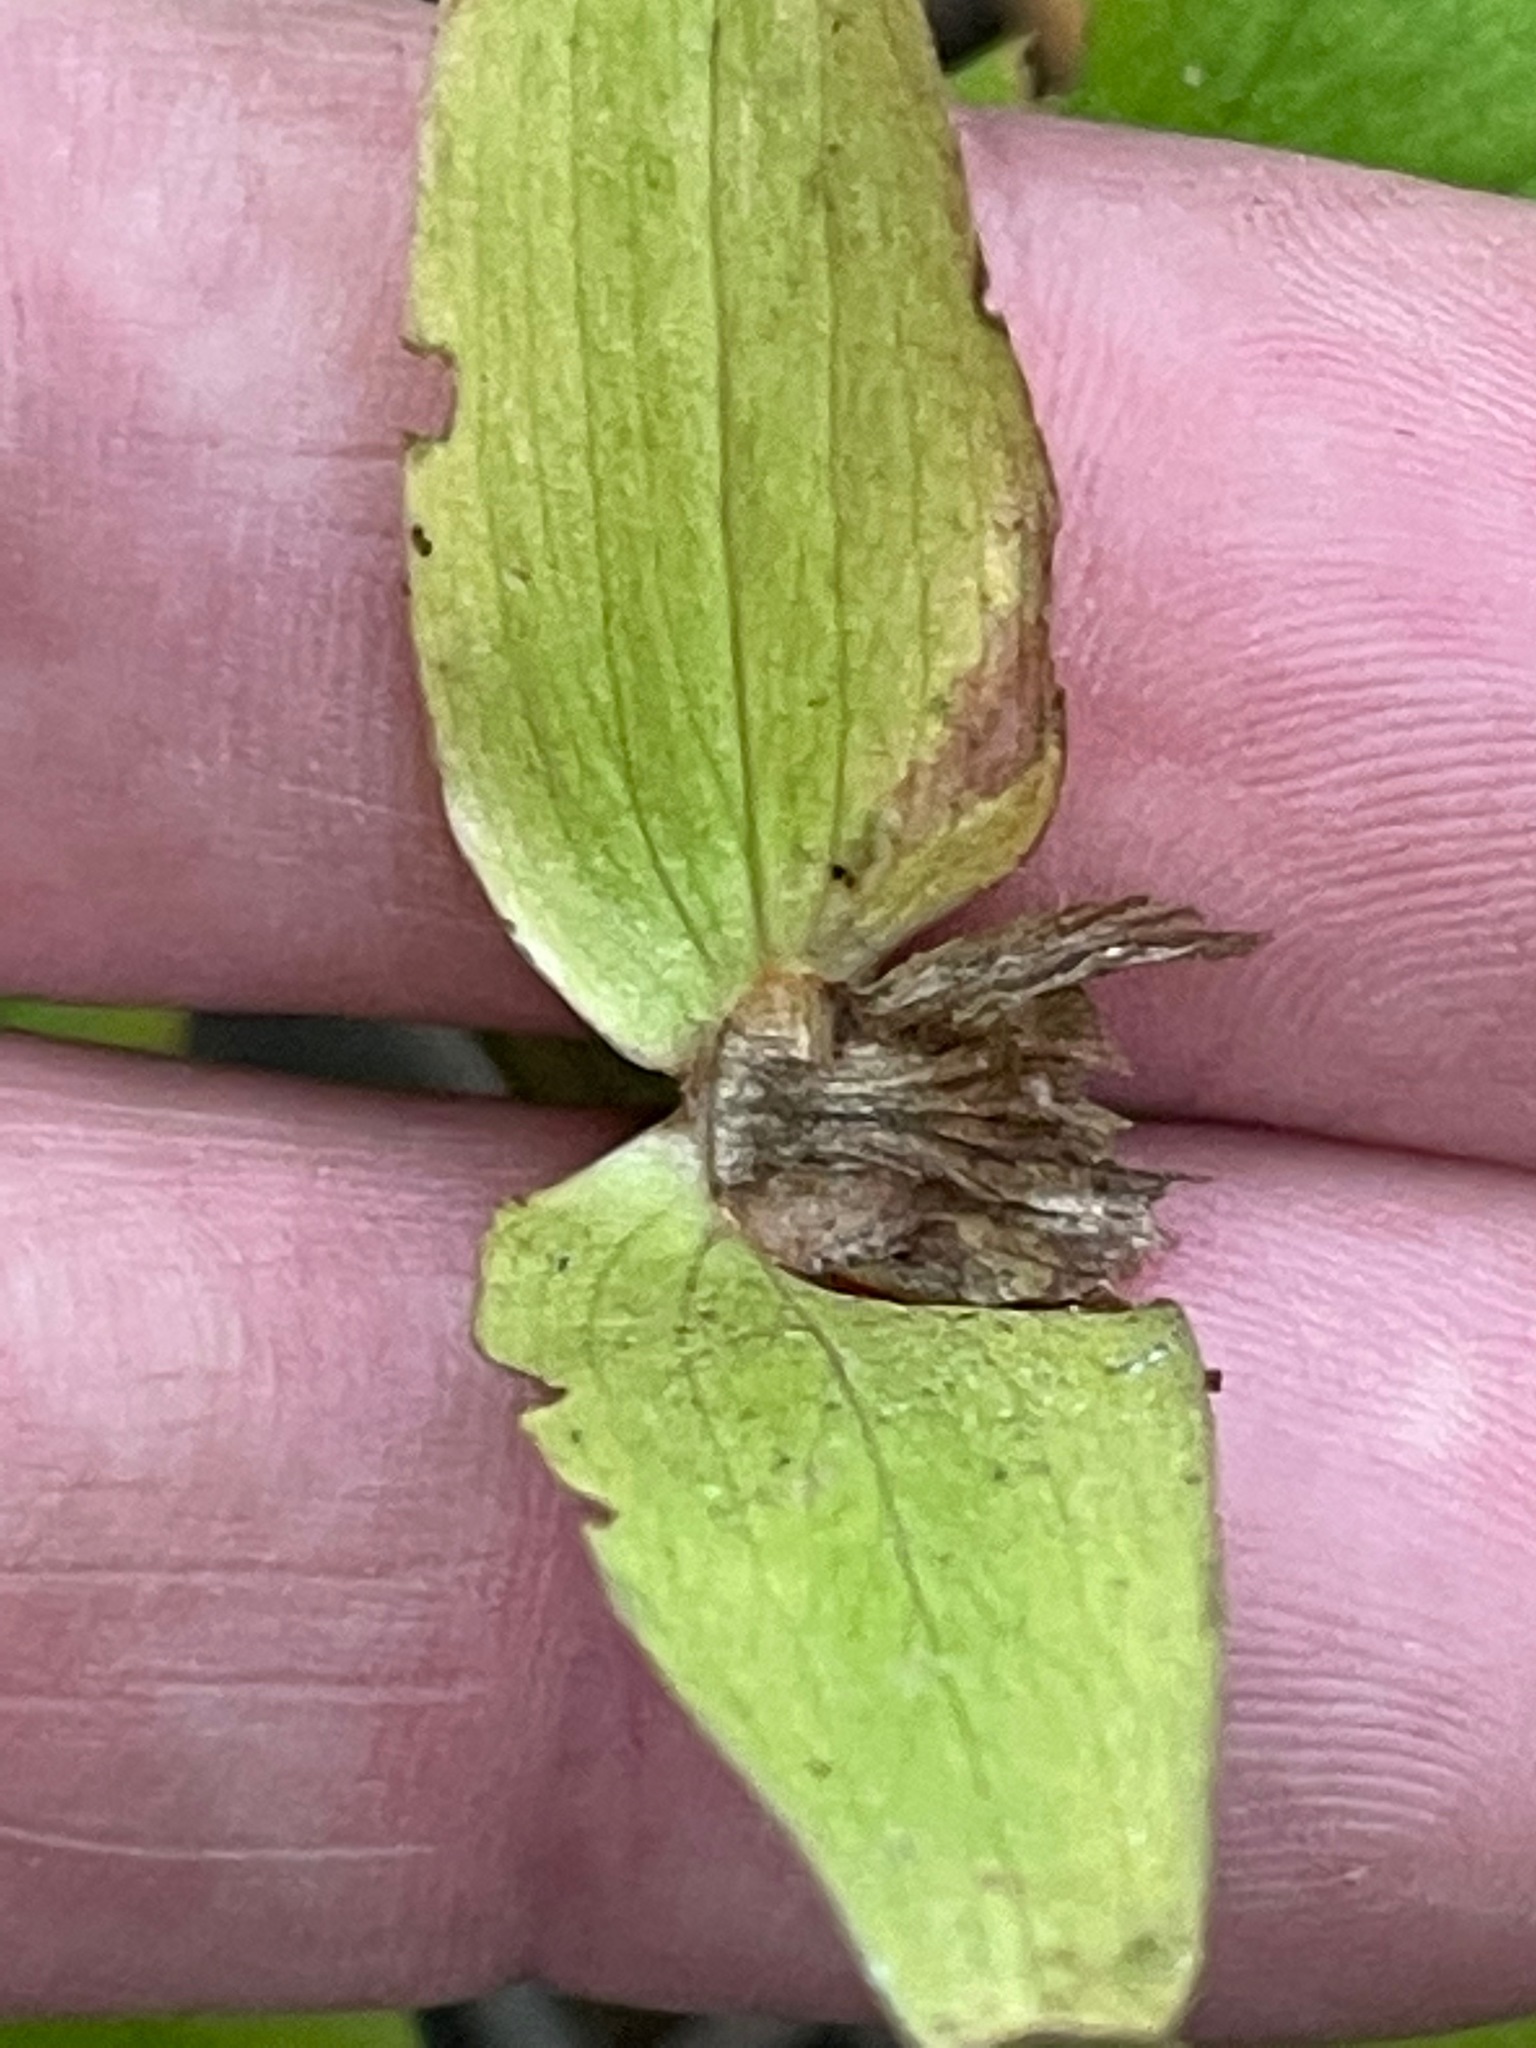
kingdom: Plantae
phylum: Tracheophyta
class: Liliopsida
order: Liliales
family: Melanthiaceae
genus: Trillium
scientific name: Trillium grandiflorum
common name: Great white trillium
